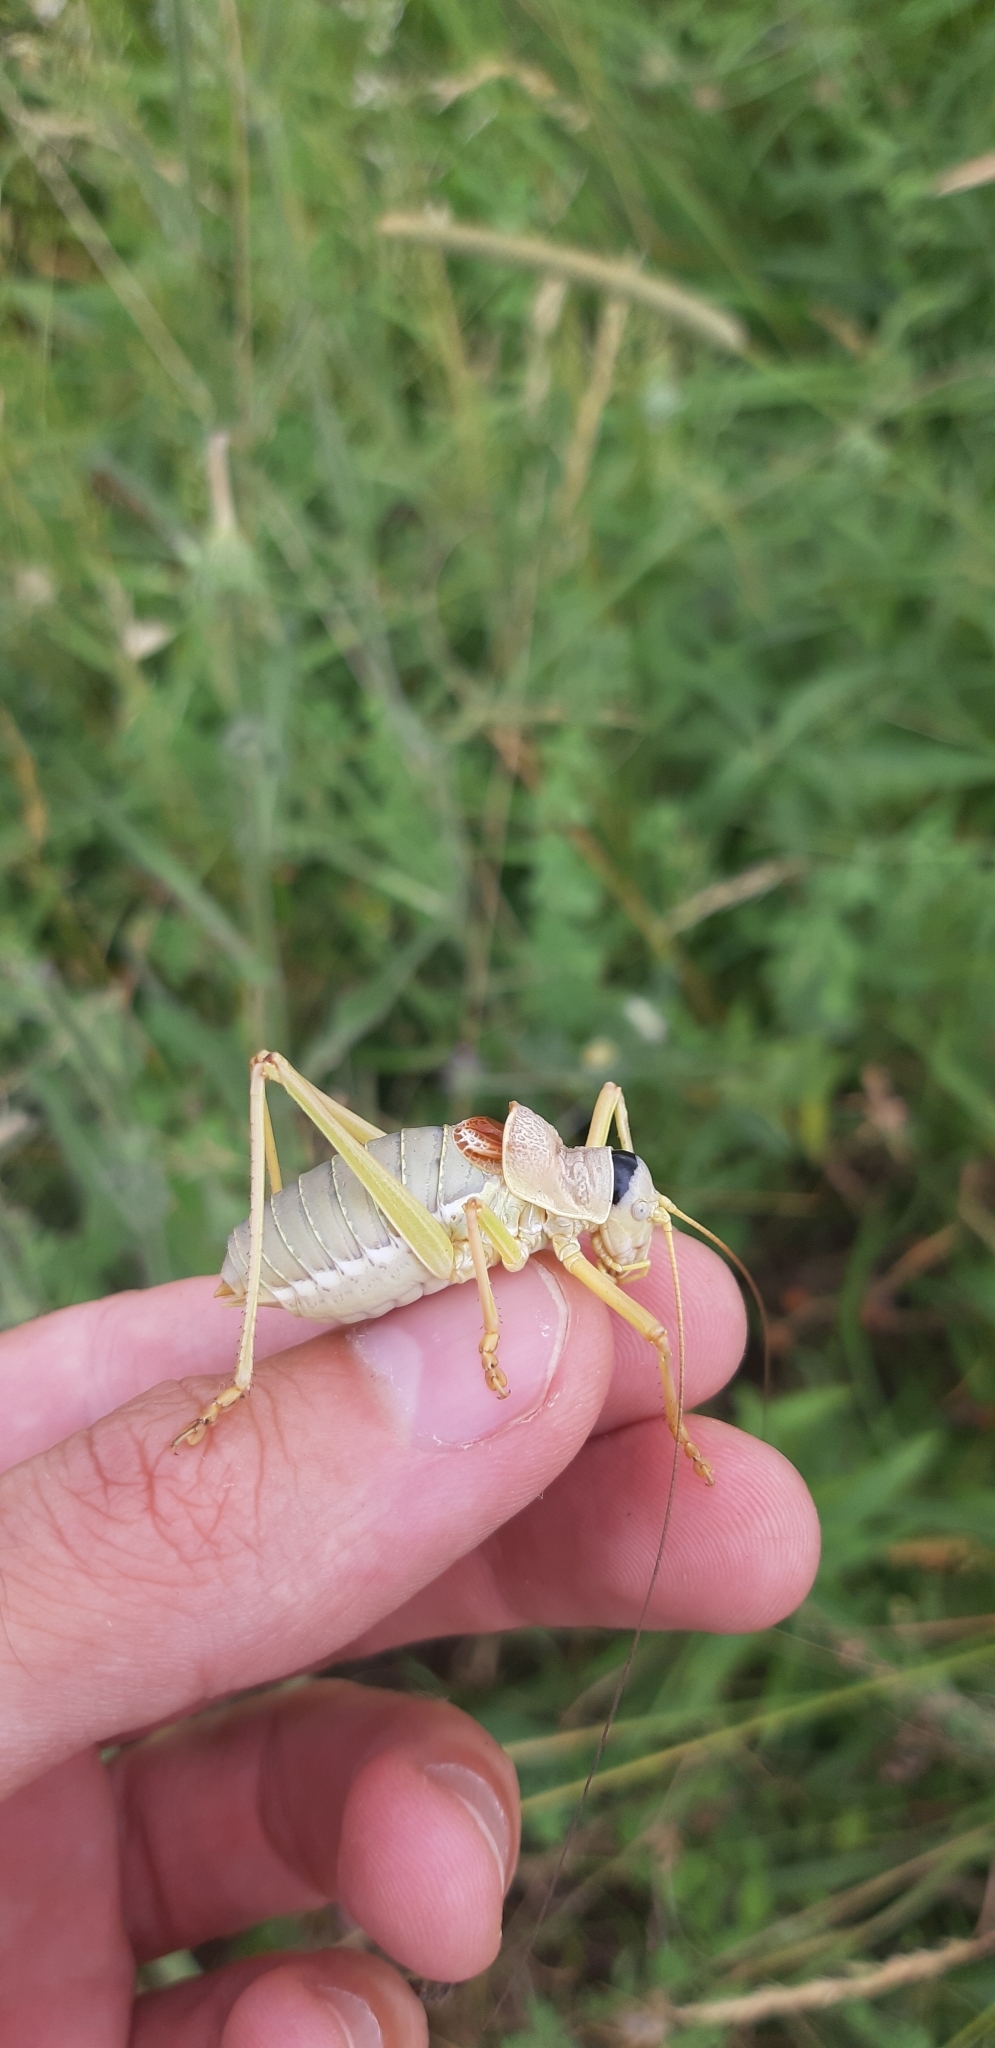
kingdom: Animalia
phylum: Arthropoda
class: Insecta
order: Orthoptera
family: Tettigoniidae
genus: Ephippiger
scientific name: Ephippiger apulus
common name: Apulian saddle bush-cricket
